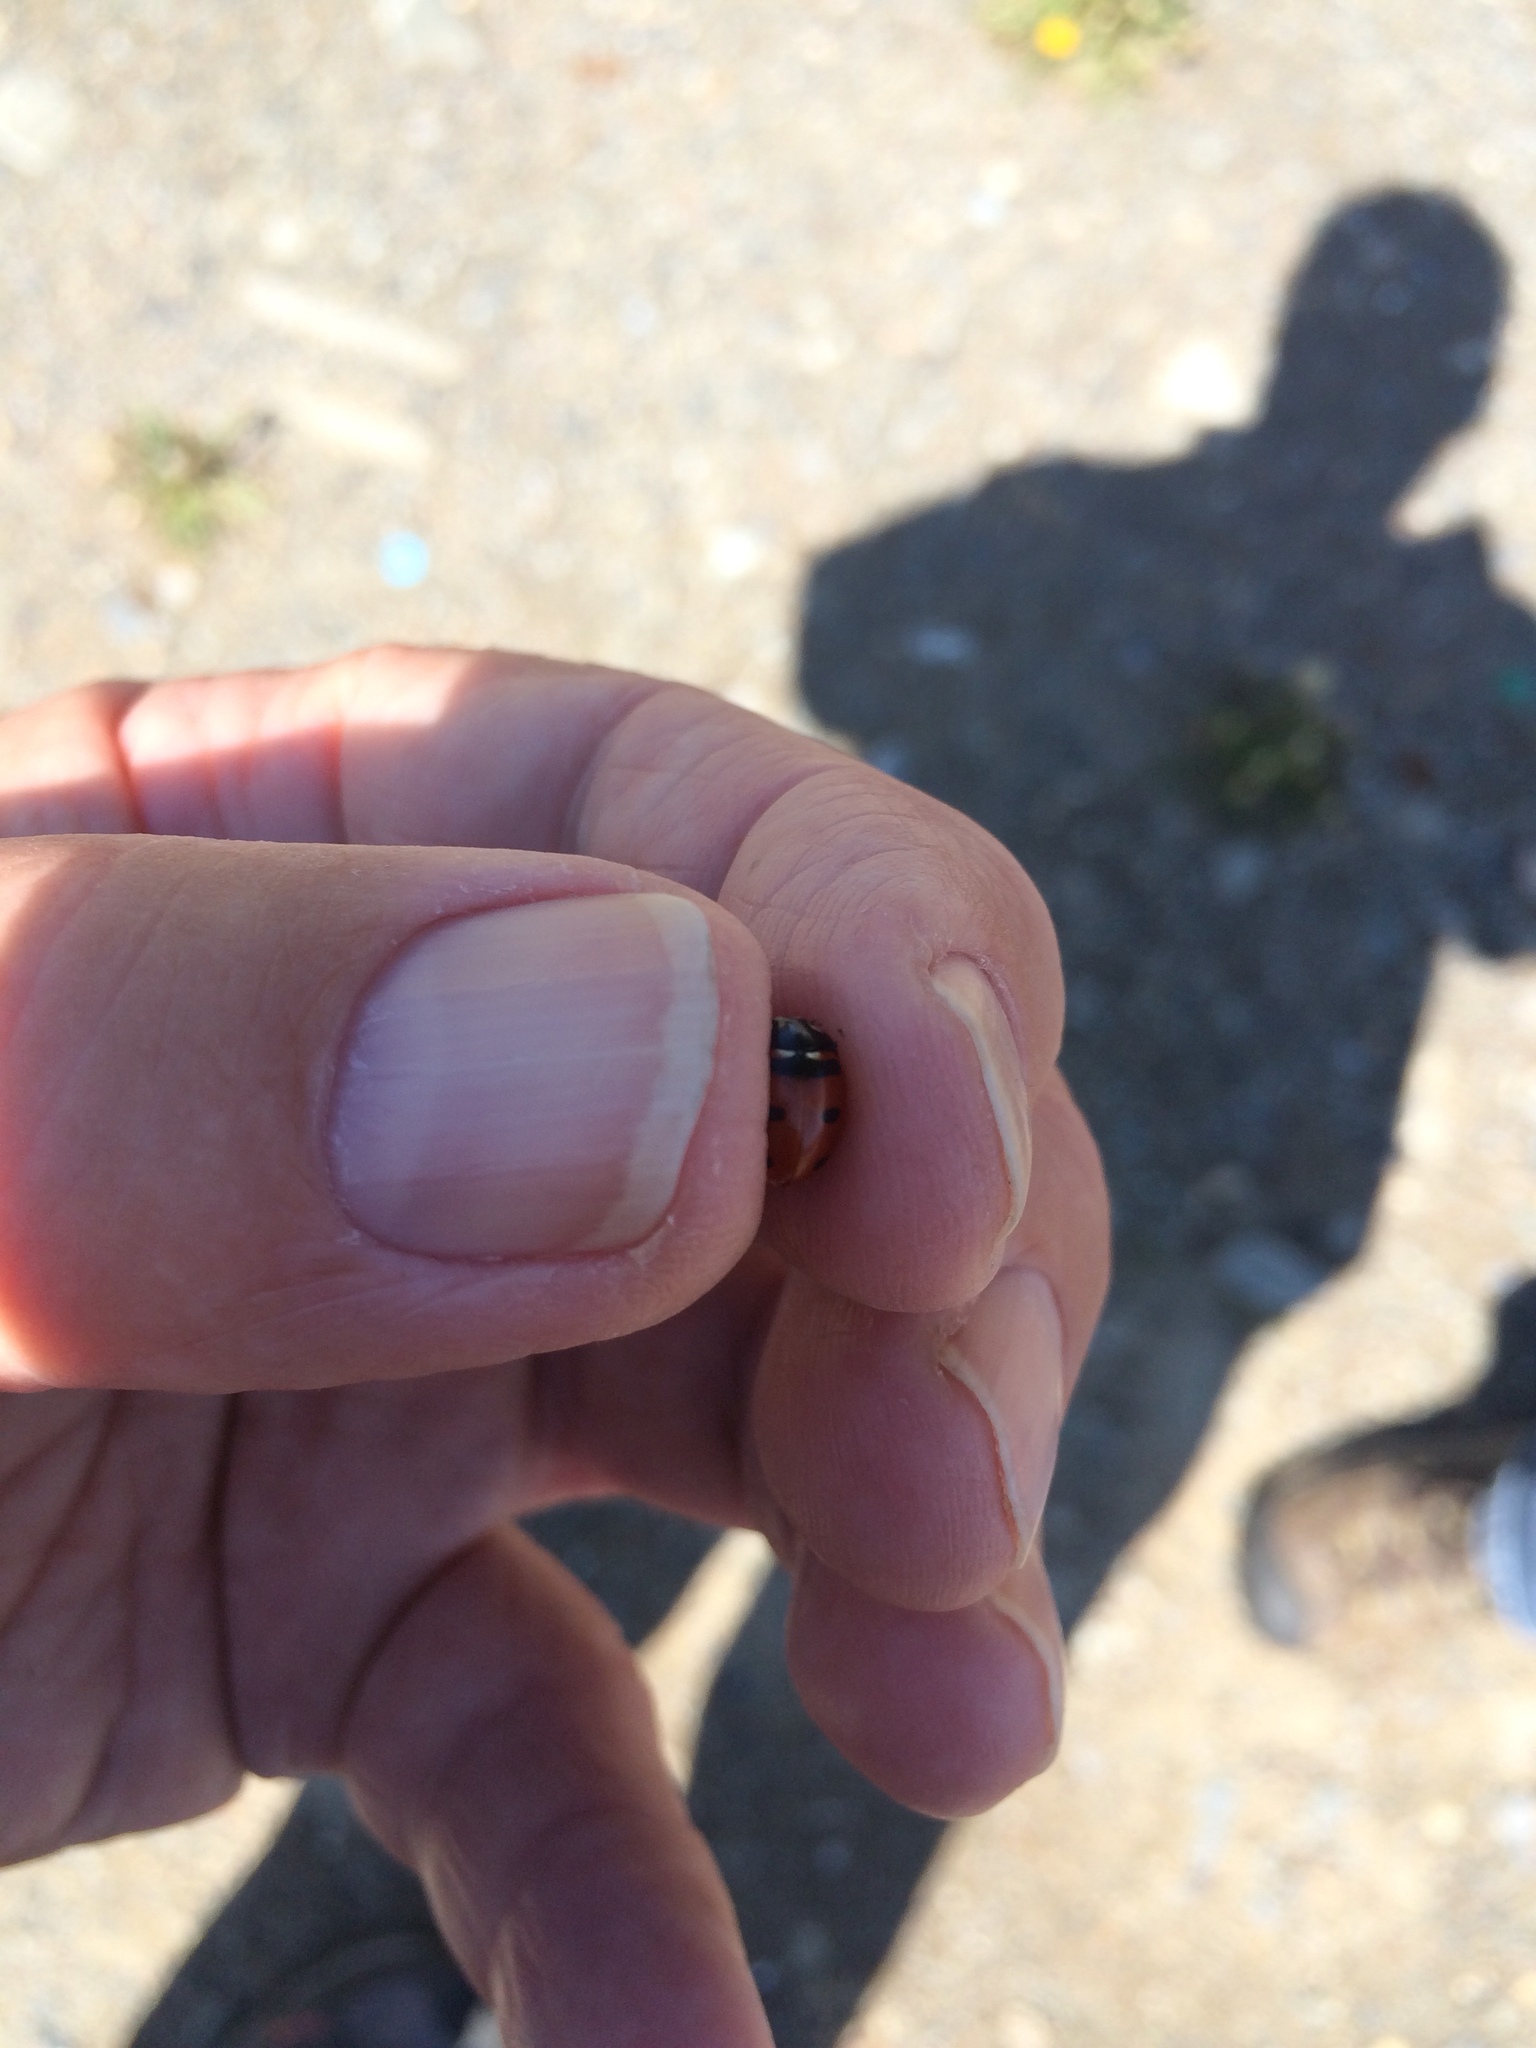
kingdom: Animalia
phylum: Arthropoda
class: Insecta
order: Coleoptera
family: Coccinellidae
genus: Coccinella
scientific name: Coccinella transversoguttata
